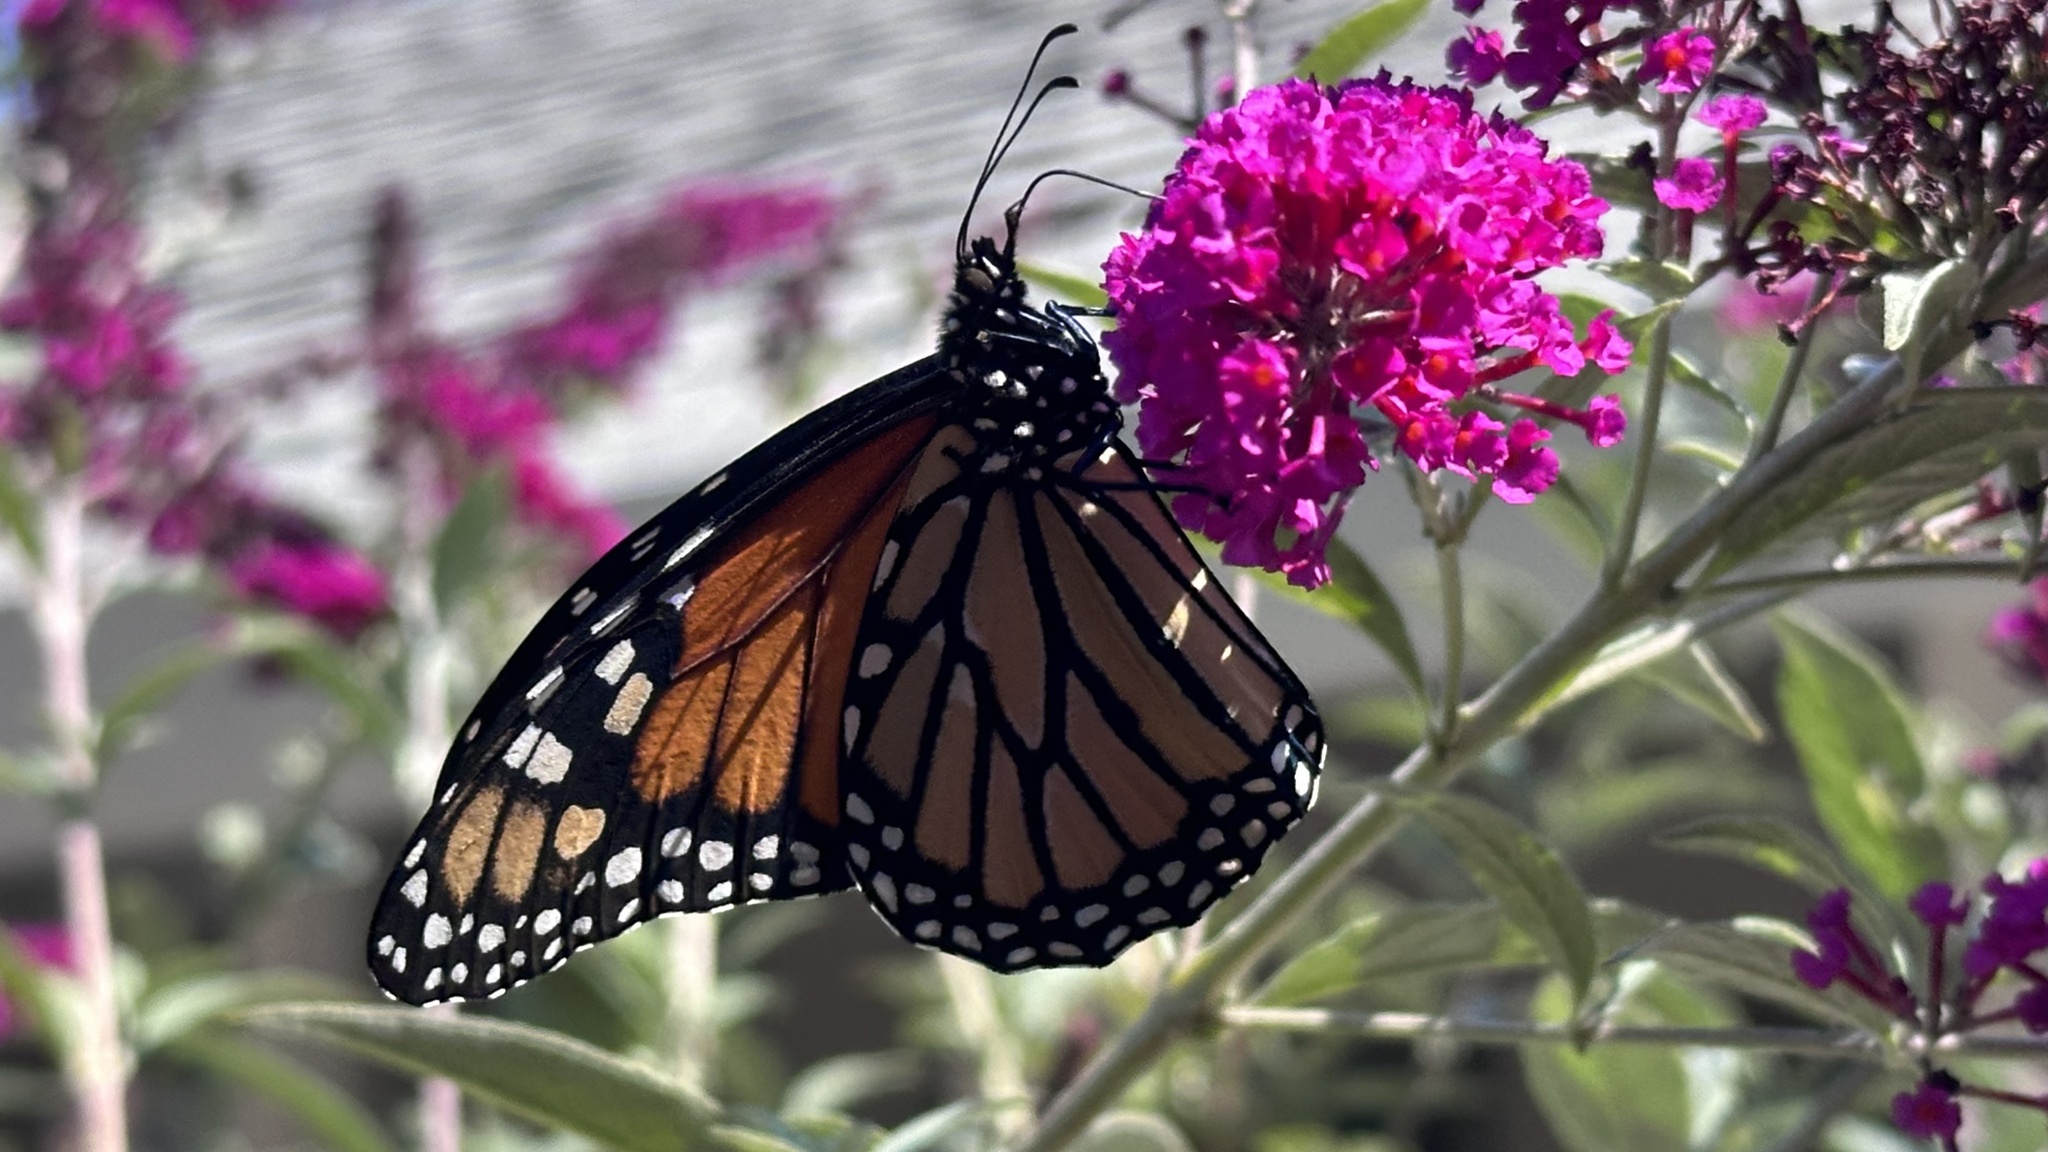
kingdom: Animalia
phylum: Arthropoda
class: Insecta
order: Lepidoptera
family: Nymphalidae
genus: Danaus
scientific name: Danaus plexippus
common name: Monarch
